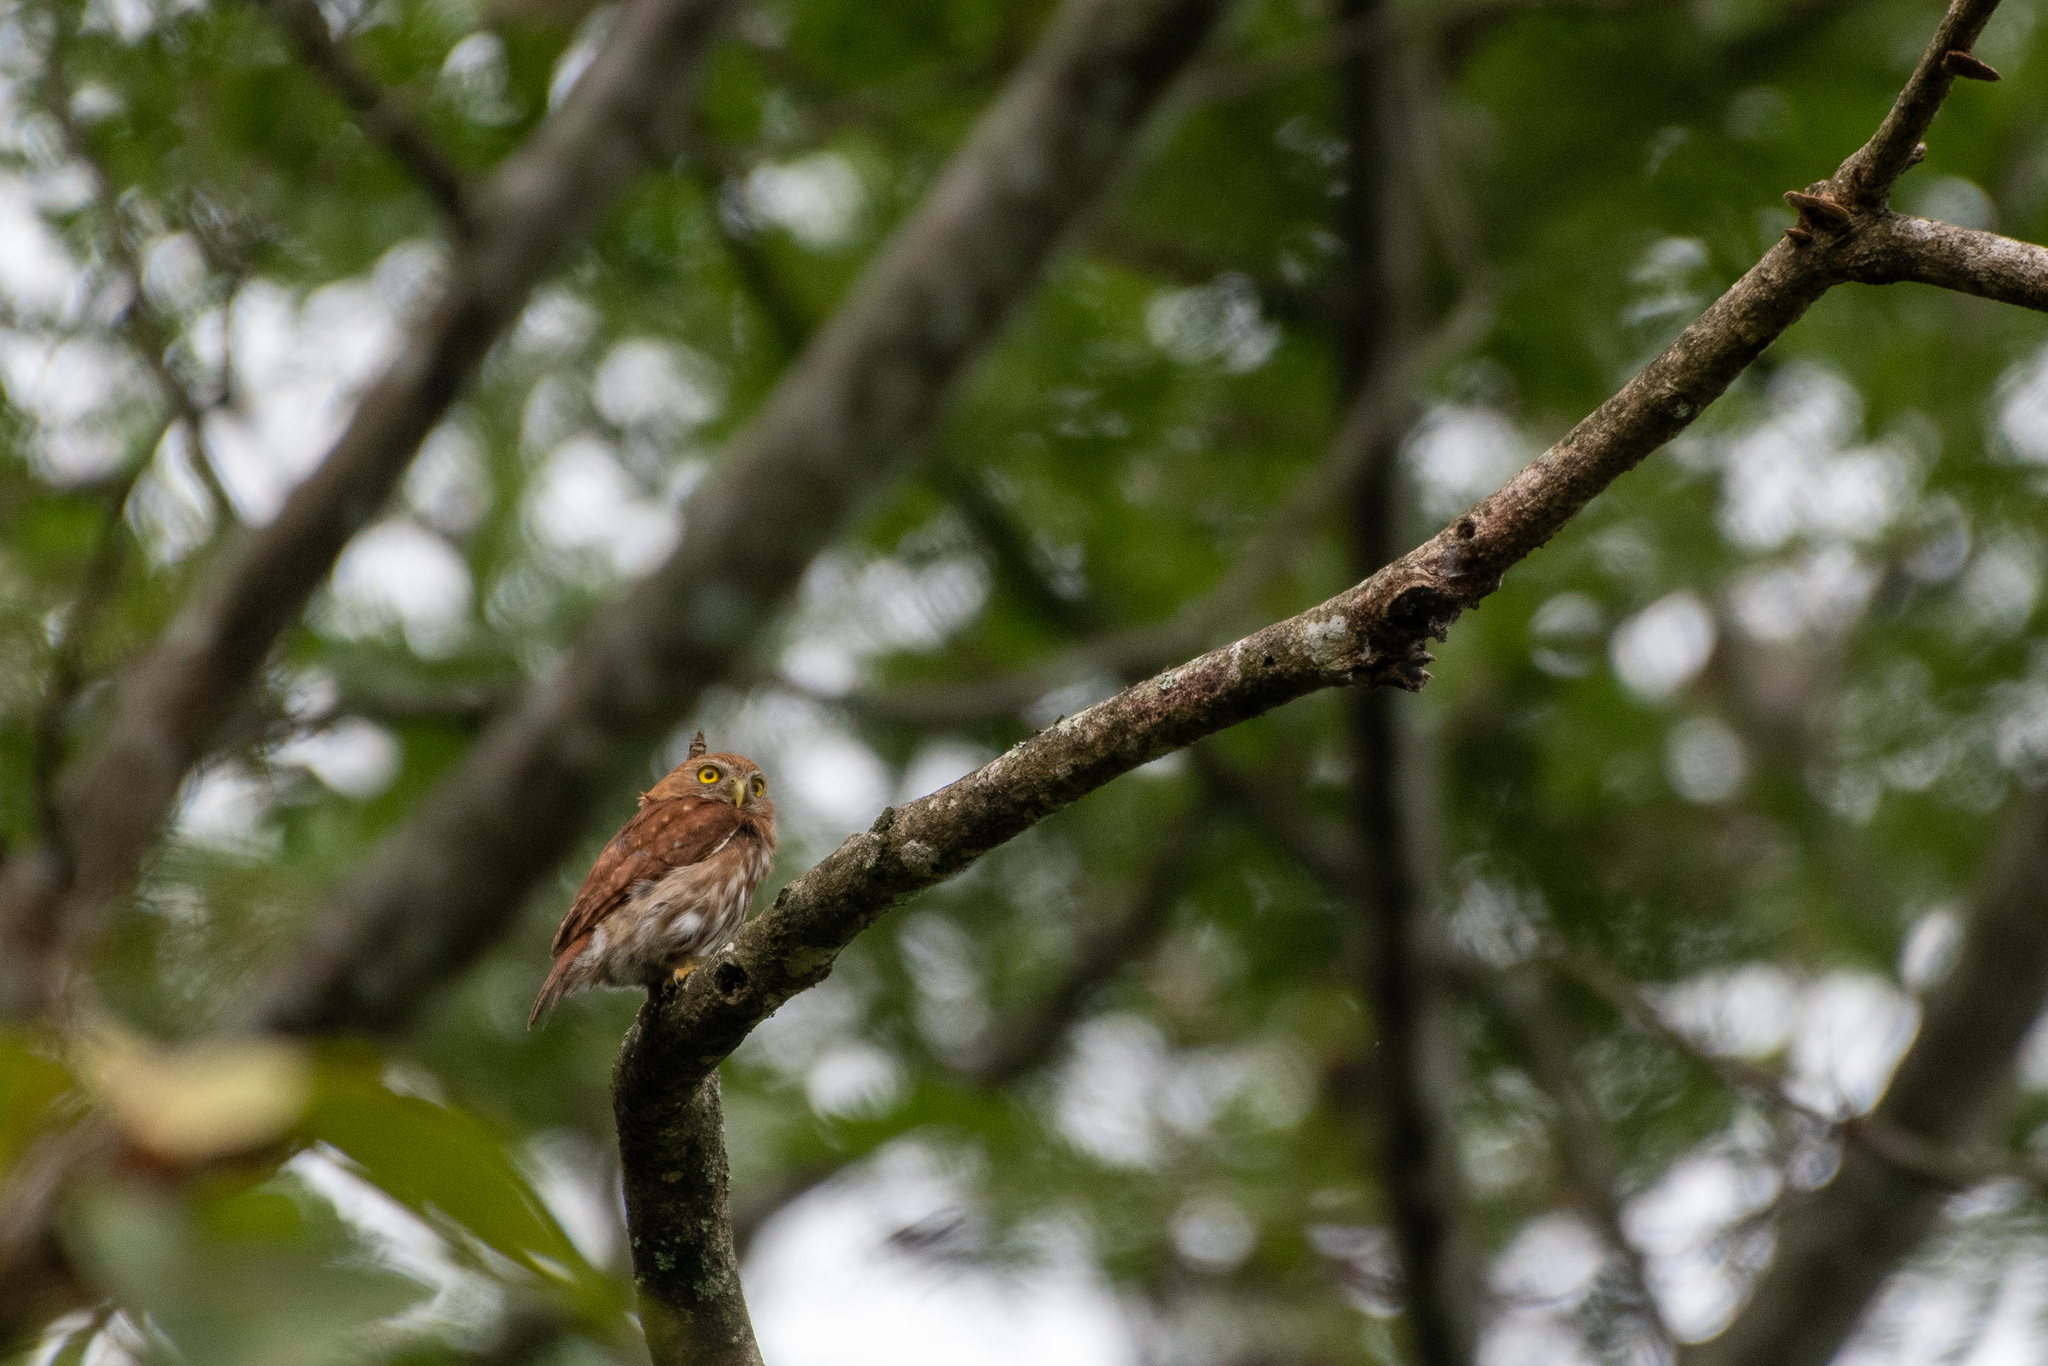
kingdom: Animalia
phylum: Chordata
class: Aves
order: Strigiformes
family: Strigidae
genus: Glaucidium
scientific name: Glaucidium brasilianum
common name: Ferruginous pygmy-owl
